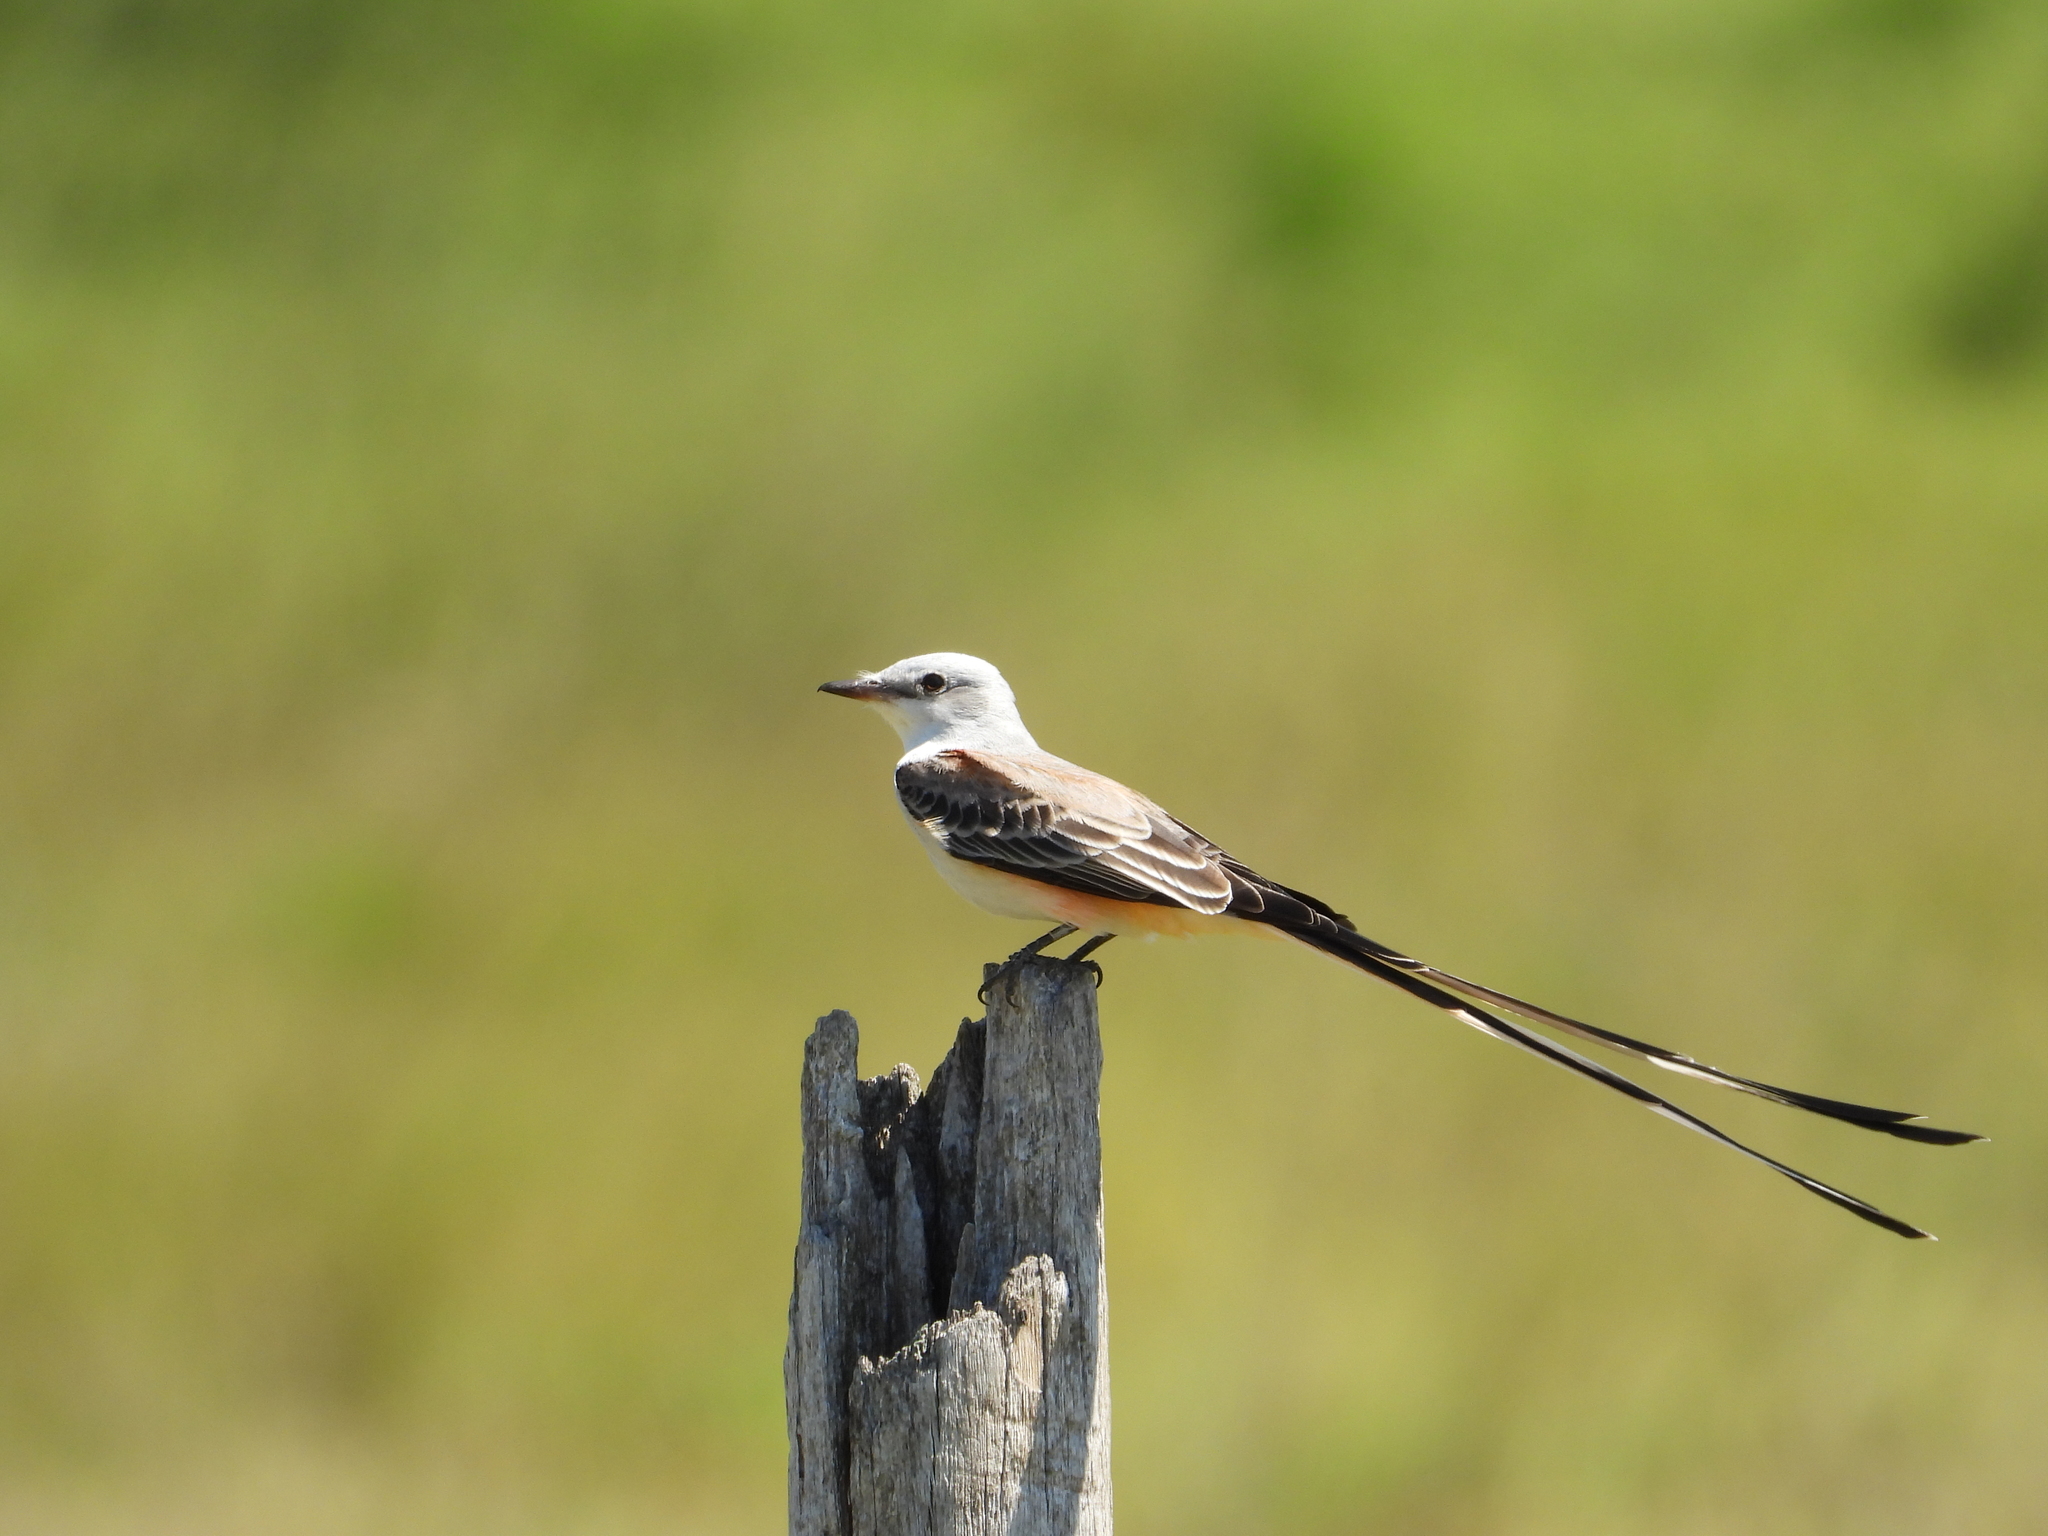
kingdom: Animalia
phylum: Chordata
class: Aves
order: Passeriformes
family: Tyrannidae
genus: Tyrannus
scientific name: Tyrannus forficatus
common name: Scissor-tailed flycatcher
